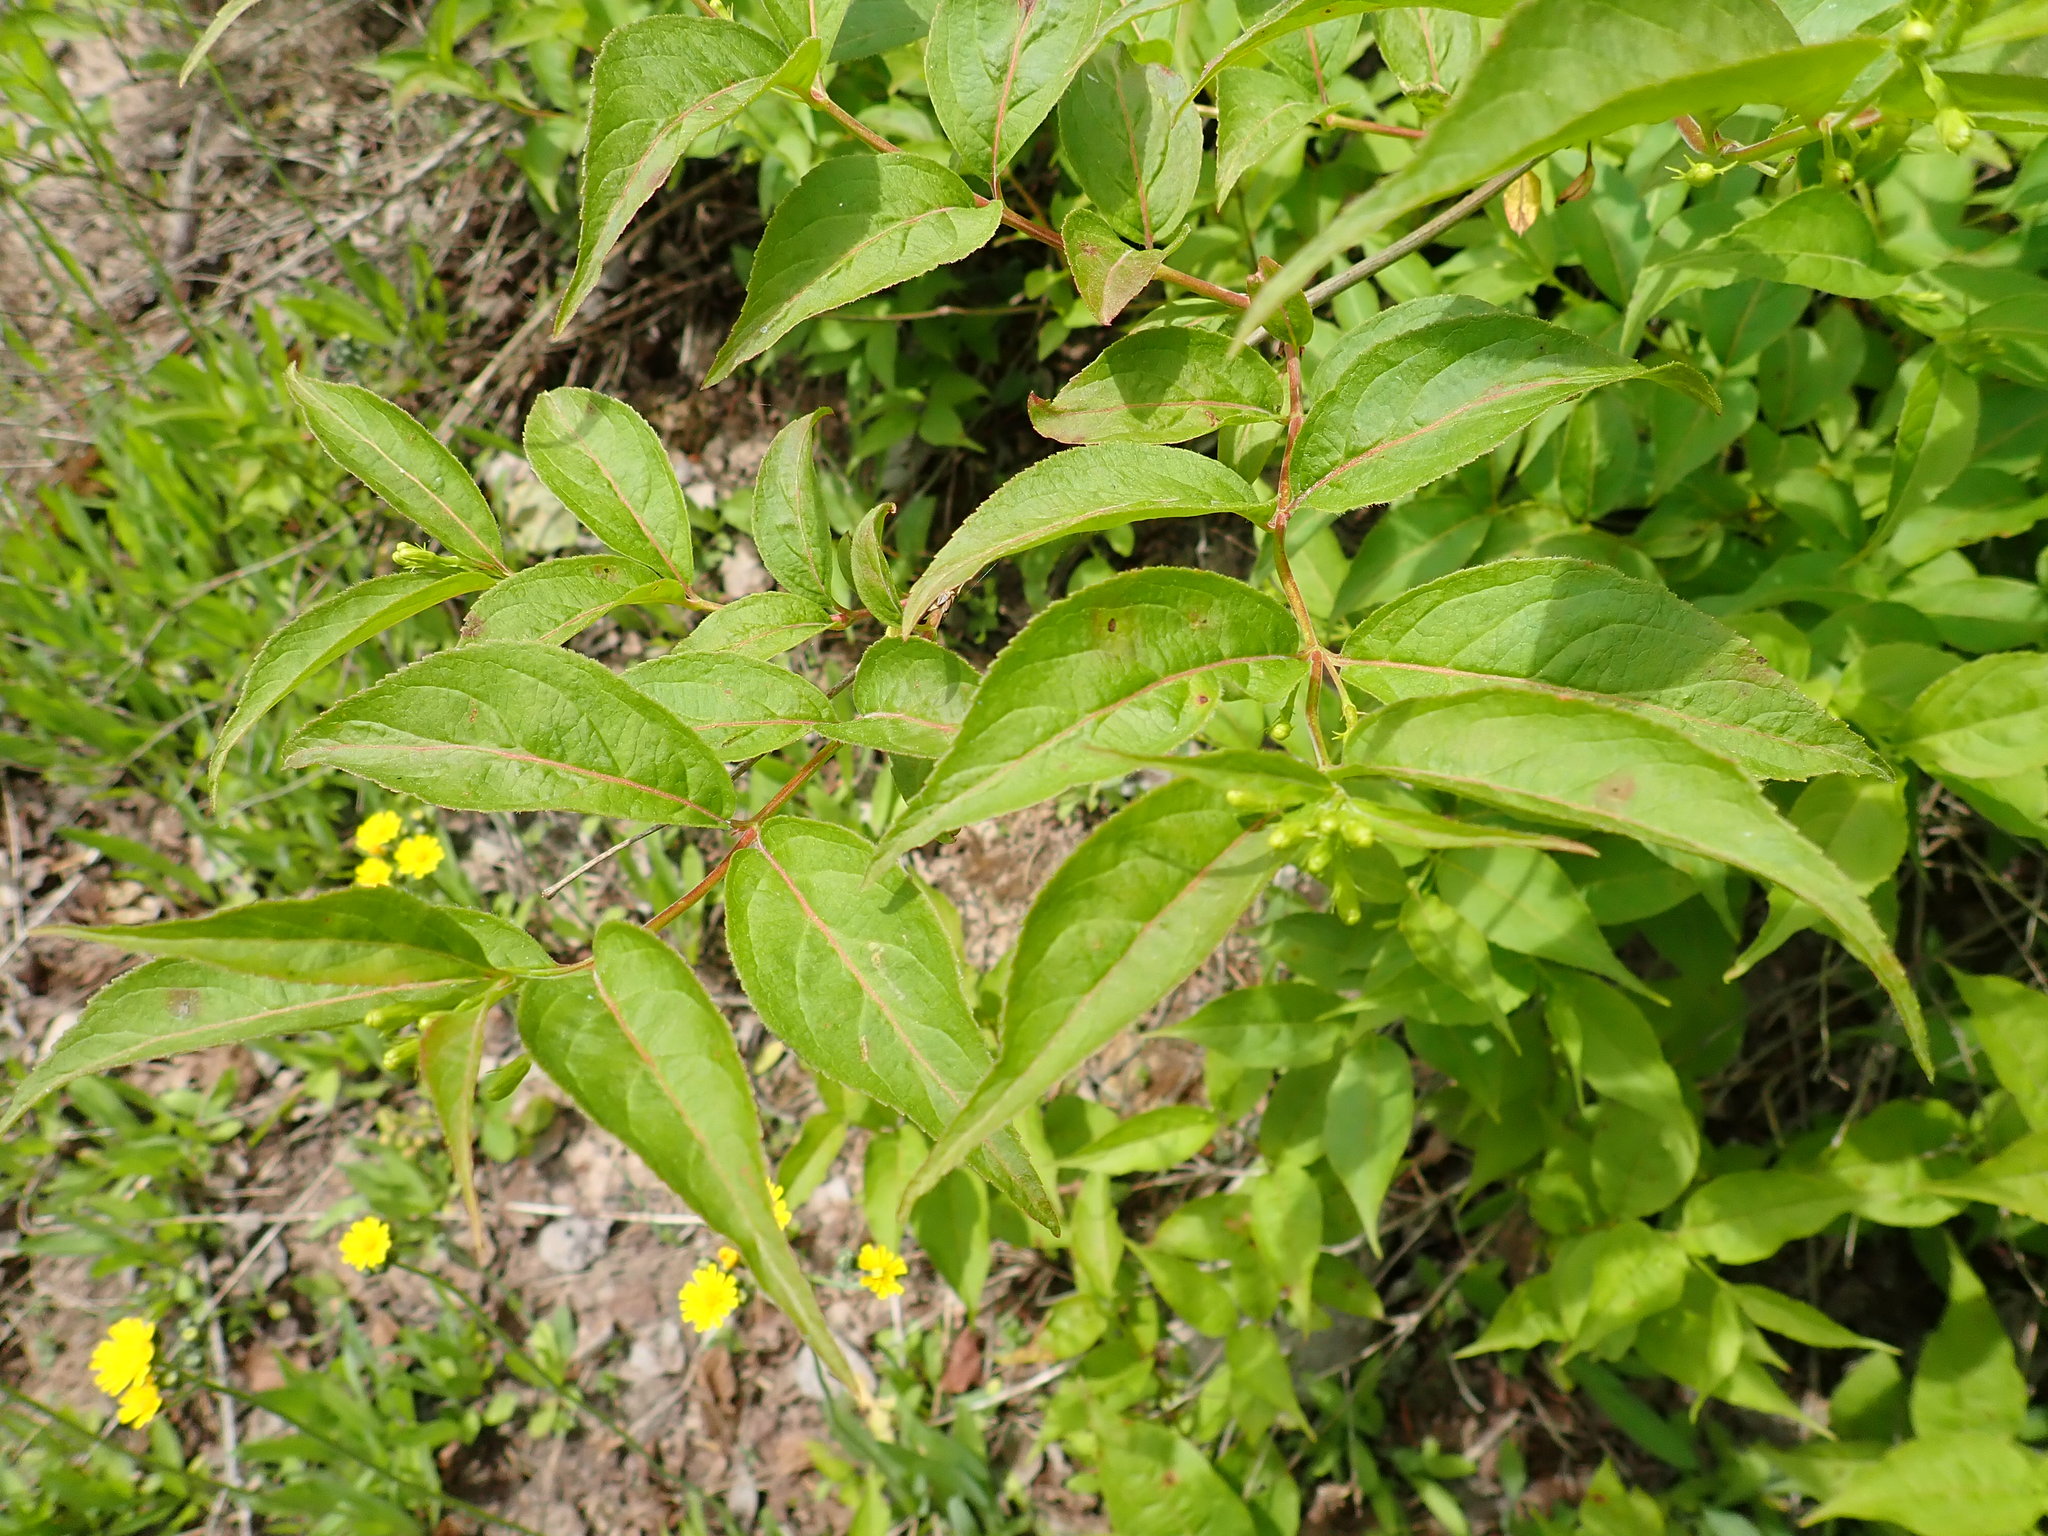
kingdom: Plantae
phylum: Tracheophyta
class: Magnoliopsida
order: Dipsacales
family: Caprifoliaceae
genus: Diervilla
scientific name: Diervilla lonicera
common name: Bush-honeysuckle
